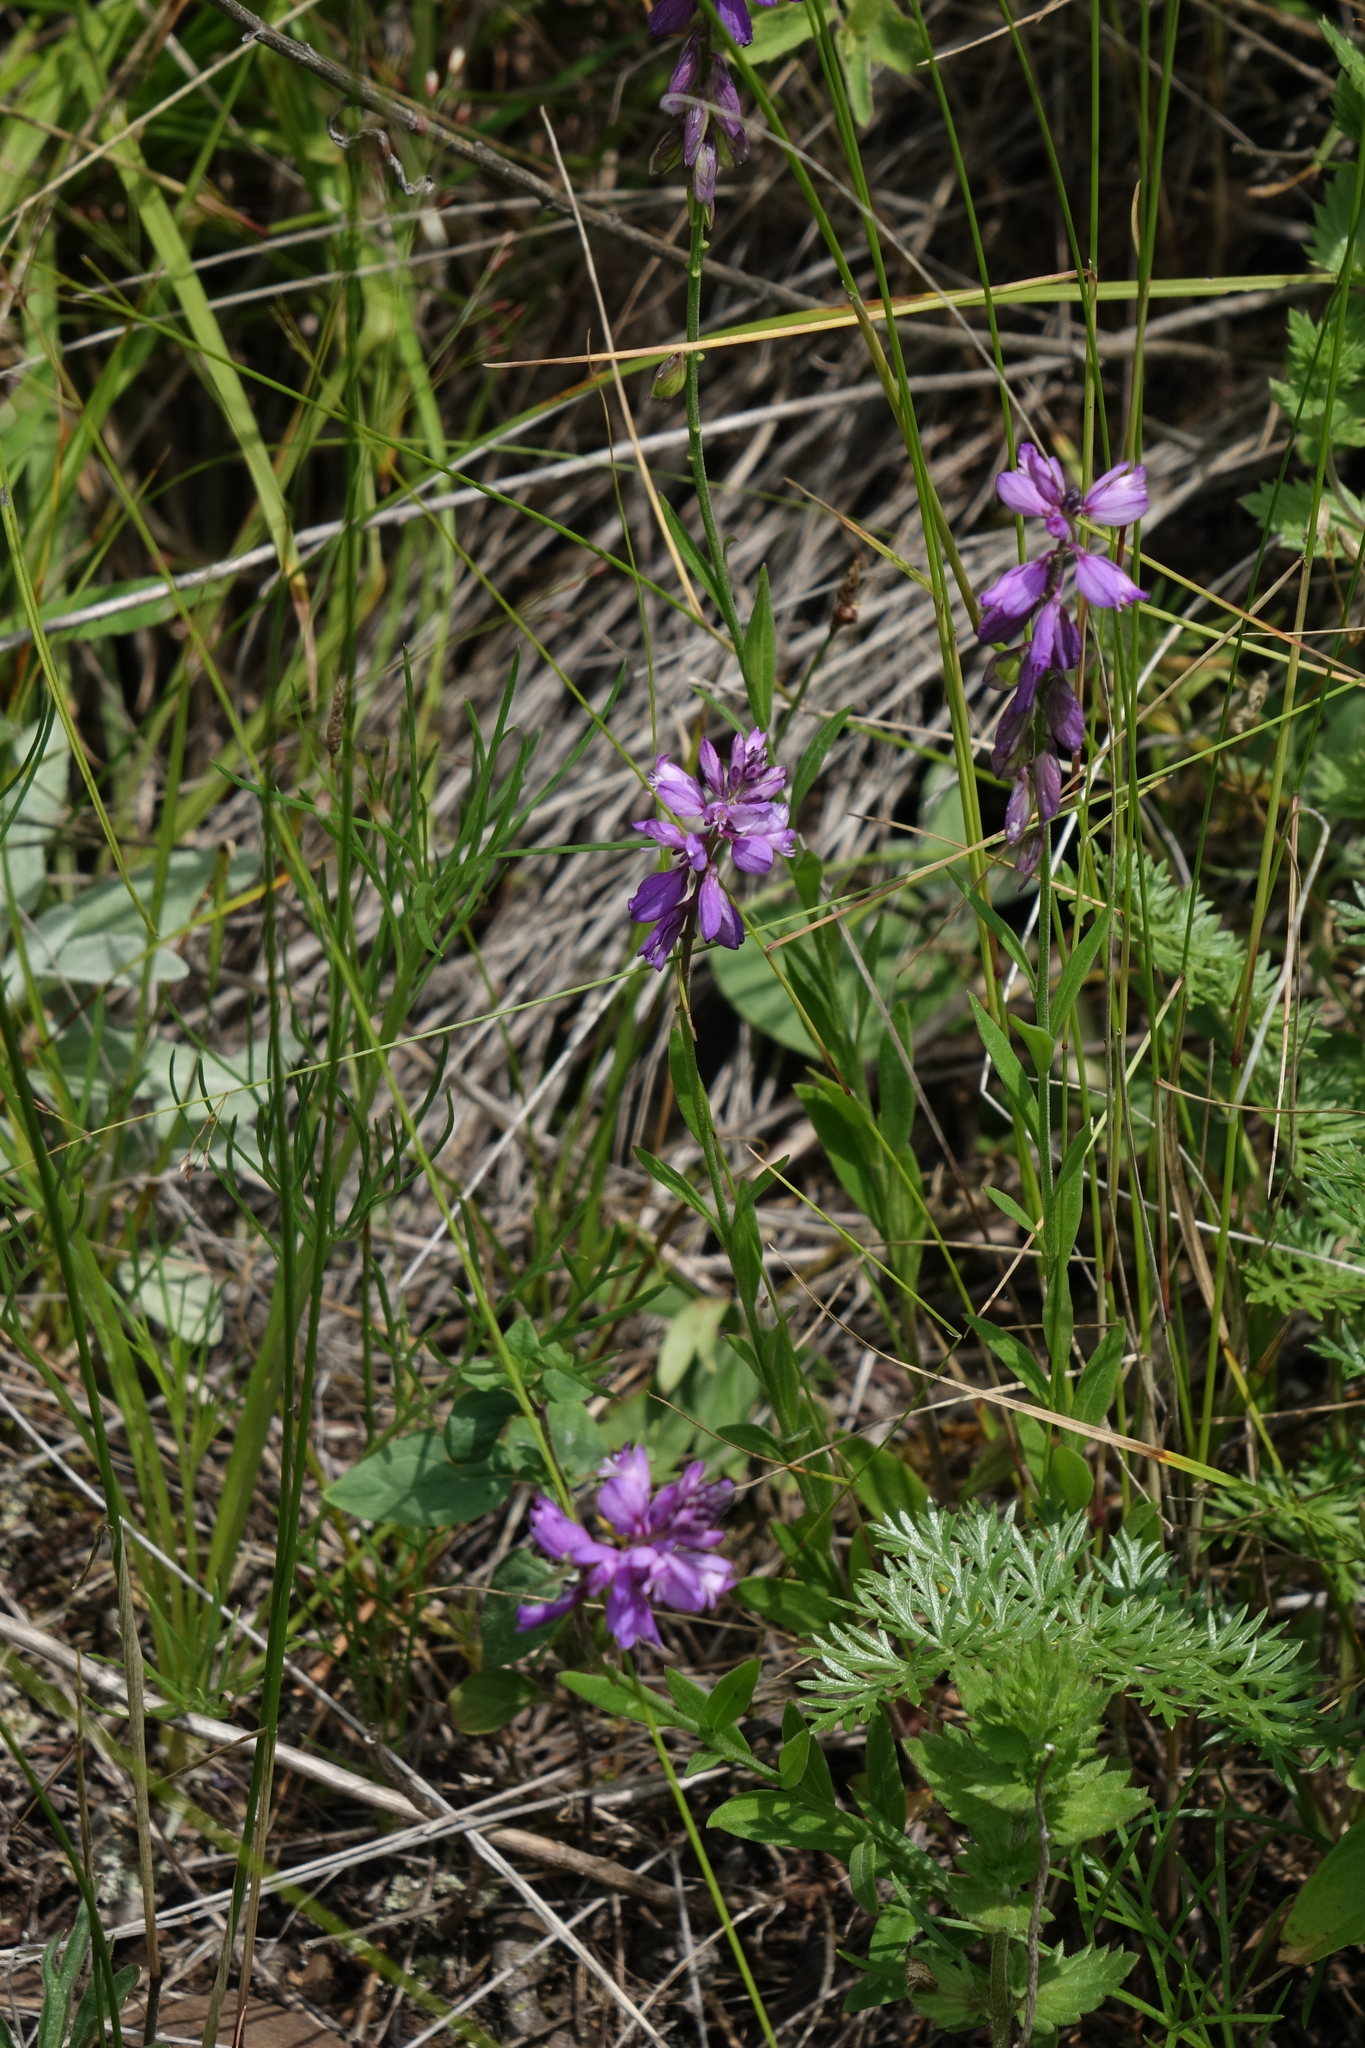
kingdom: Plantae
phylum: Tracheophyta
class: Magnoliopsida
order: Fabales
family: Polygalaceae
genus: Polygala
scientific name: Polygala comosa
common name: Tufted milkwort
